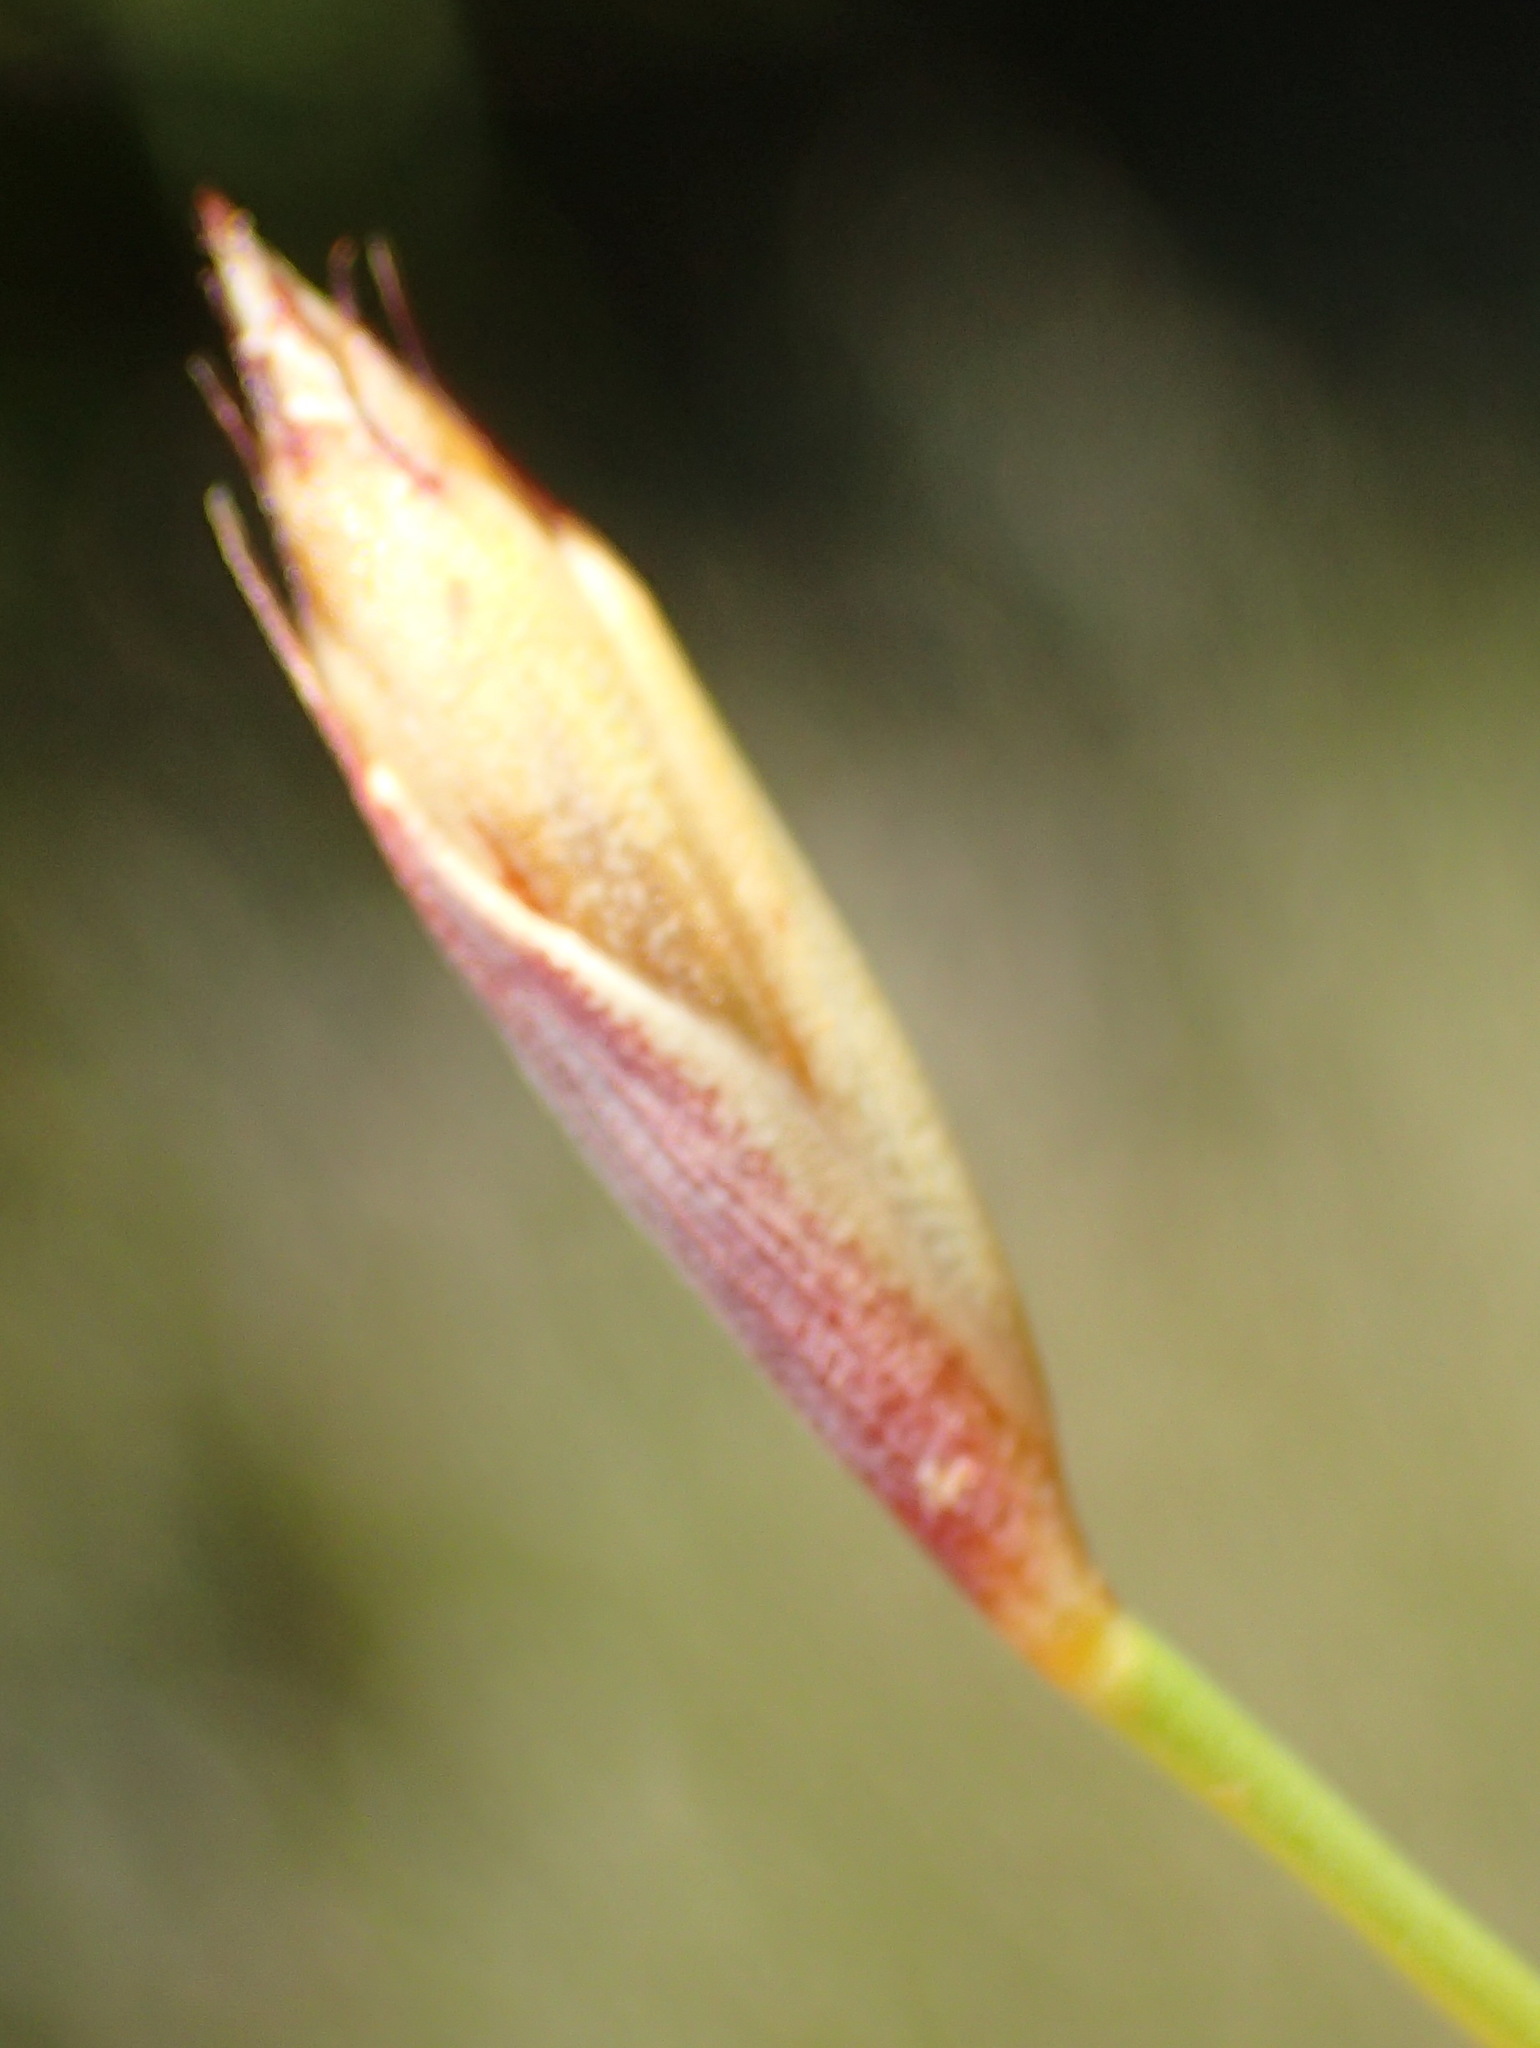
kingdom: Plantae
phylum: Tracheophyta
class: Liliopsida
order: Poales
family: Restionaceae
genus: Hypodiscus
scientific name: Hypodiscus willdenowia
